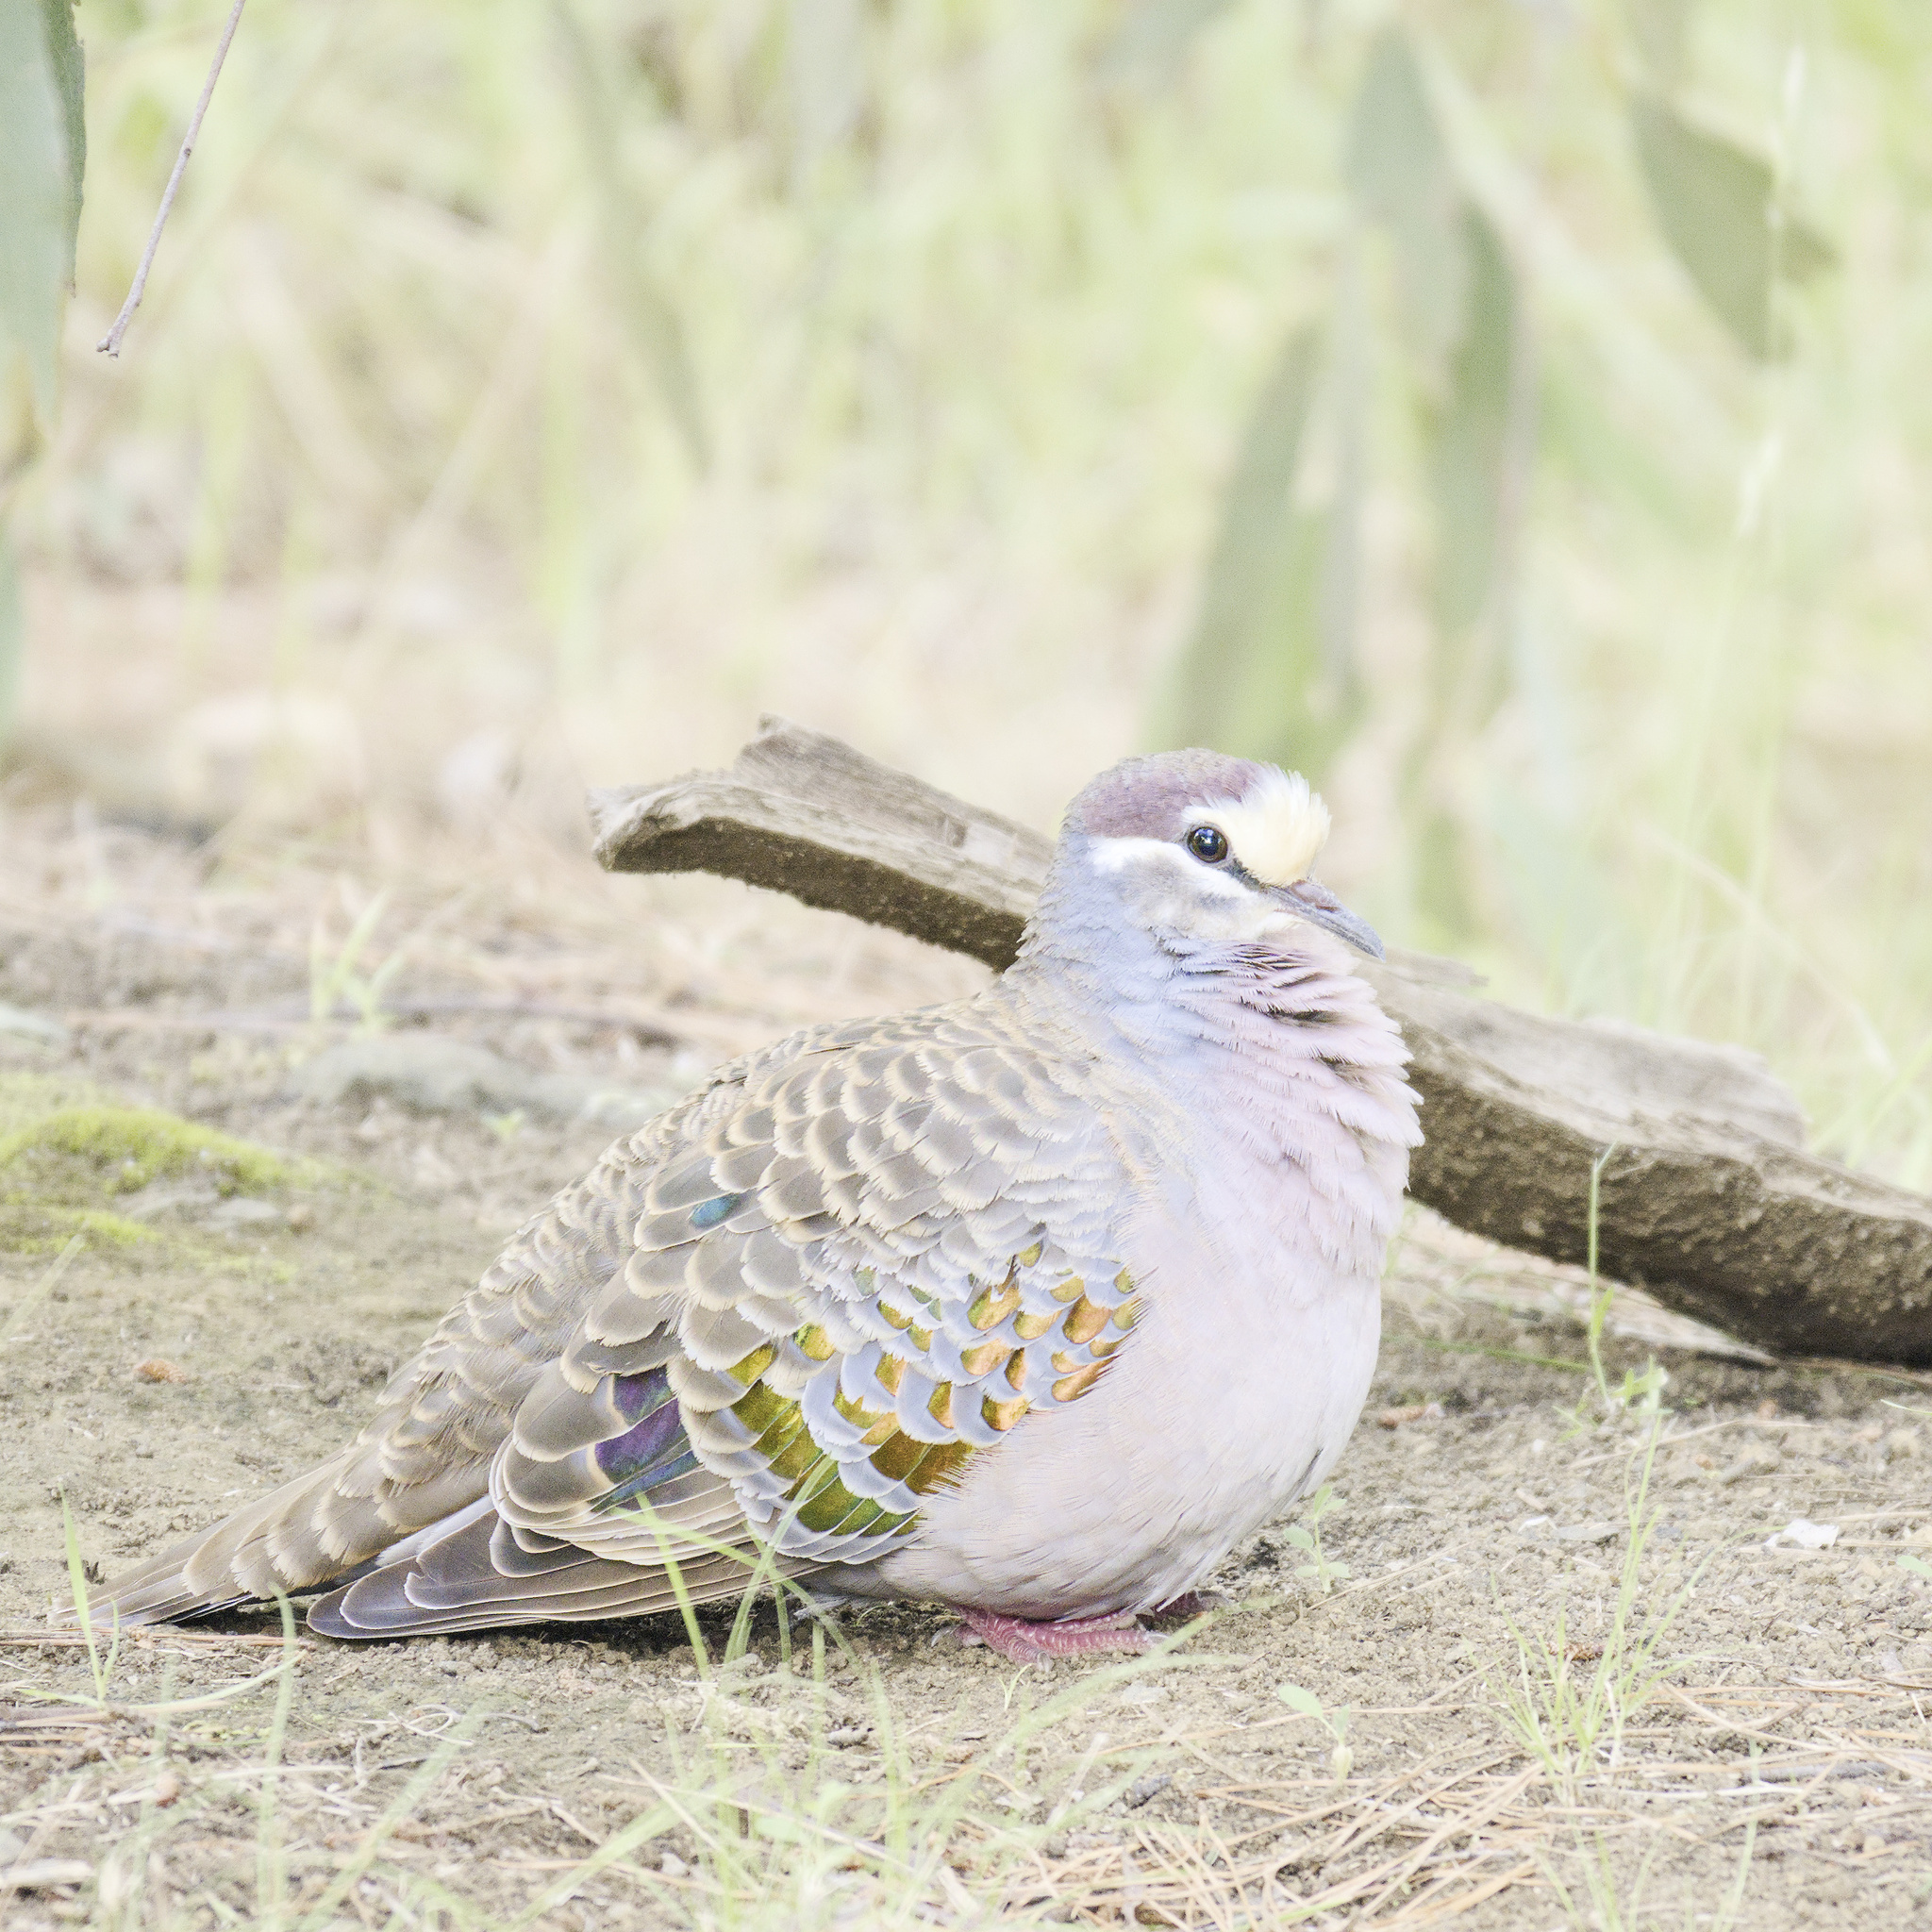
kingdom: Animalia
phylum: Chordata
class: Aves
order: Columbiformes
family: Columbidae
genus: Phaps
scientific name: Phaps chalcoptera
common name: Common bronzewing
